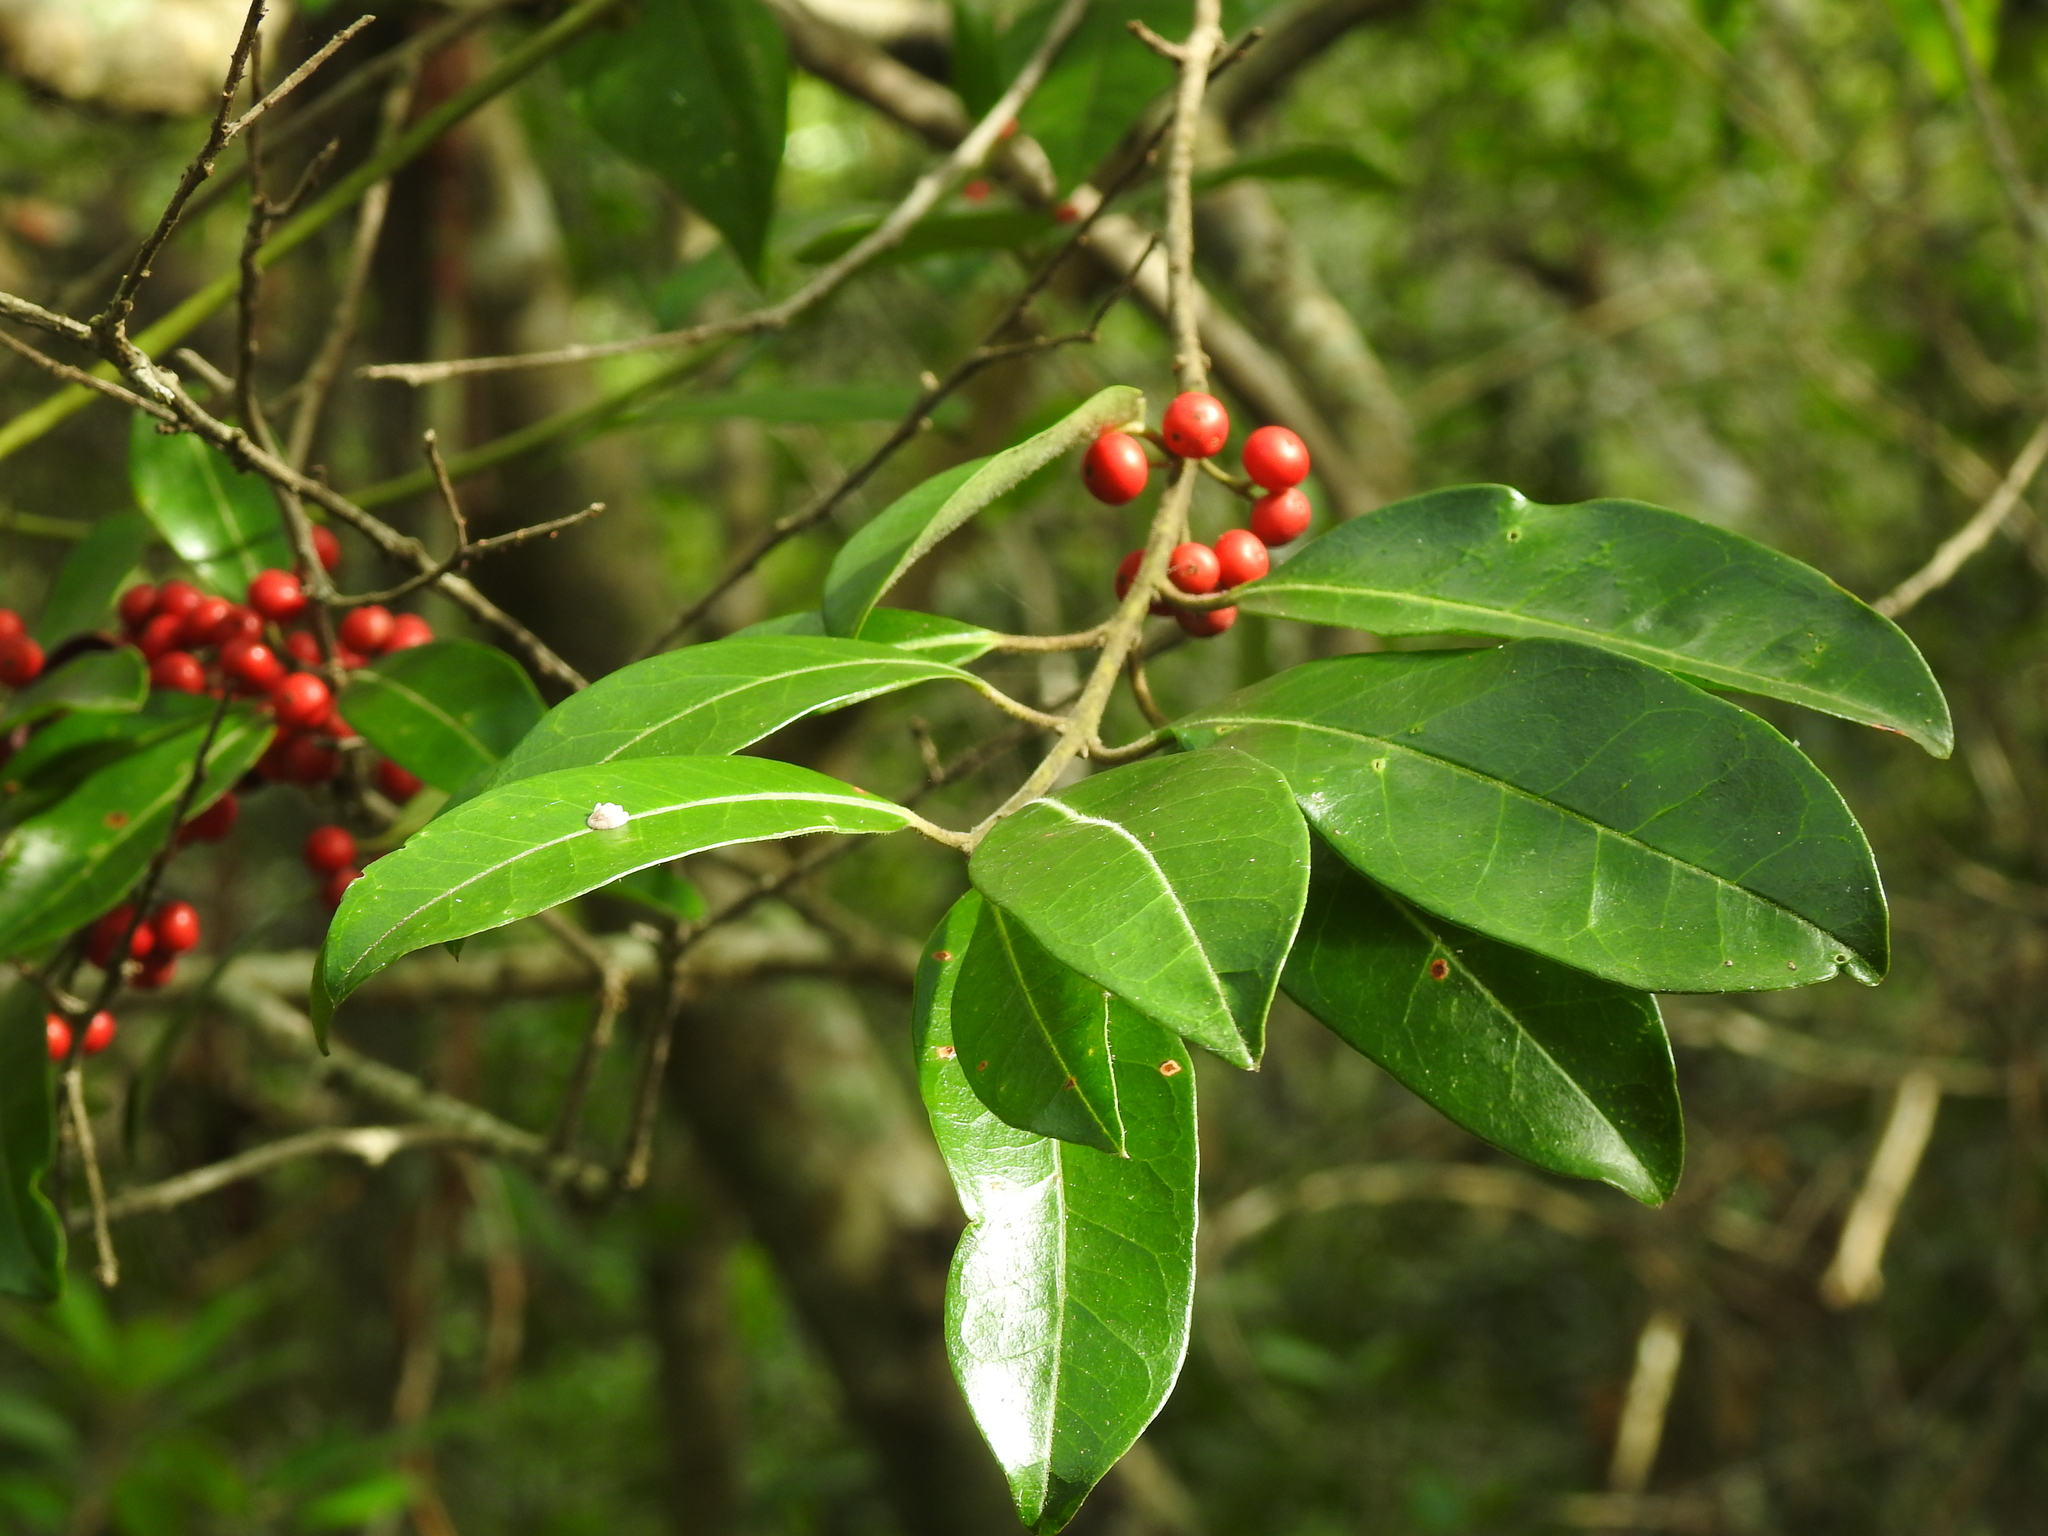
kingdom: Plantae
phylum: Tracheophyta
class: Magnoliopsida
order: Aquifoliales
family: Aquifoliaceae
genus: Ilex
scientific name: Ilex cassine
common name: Dahoon
